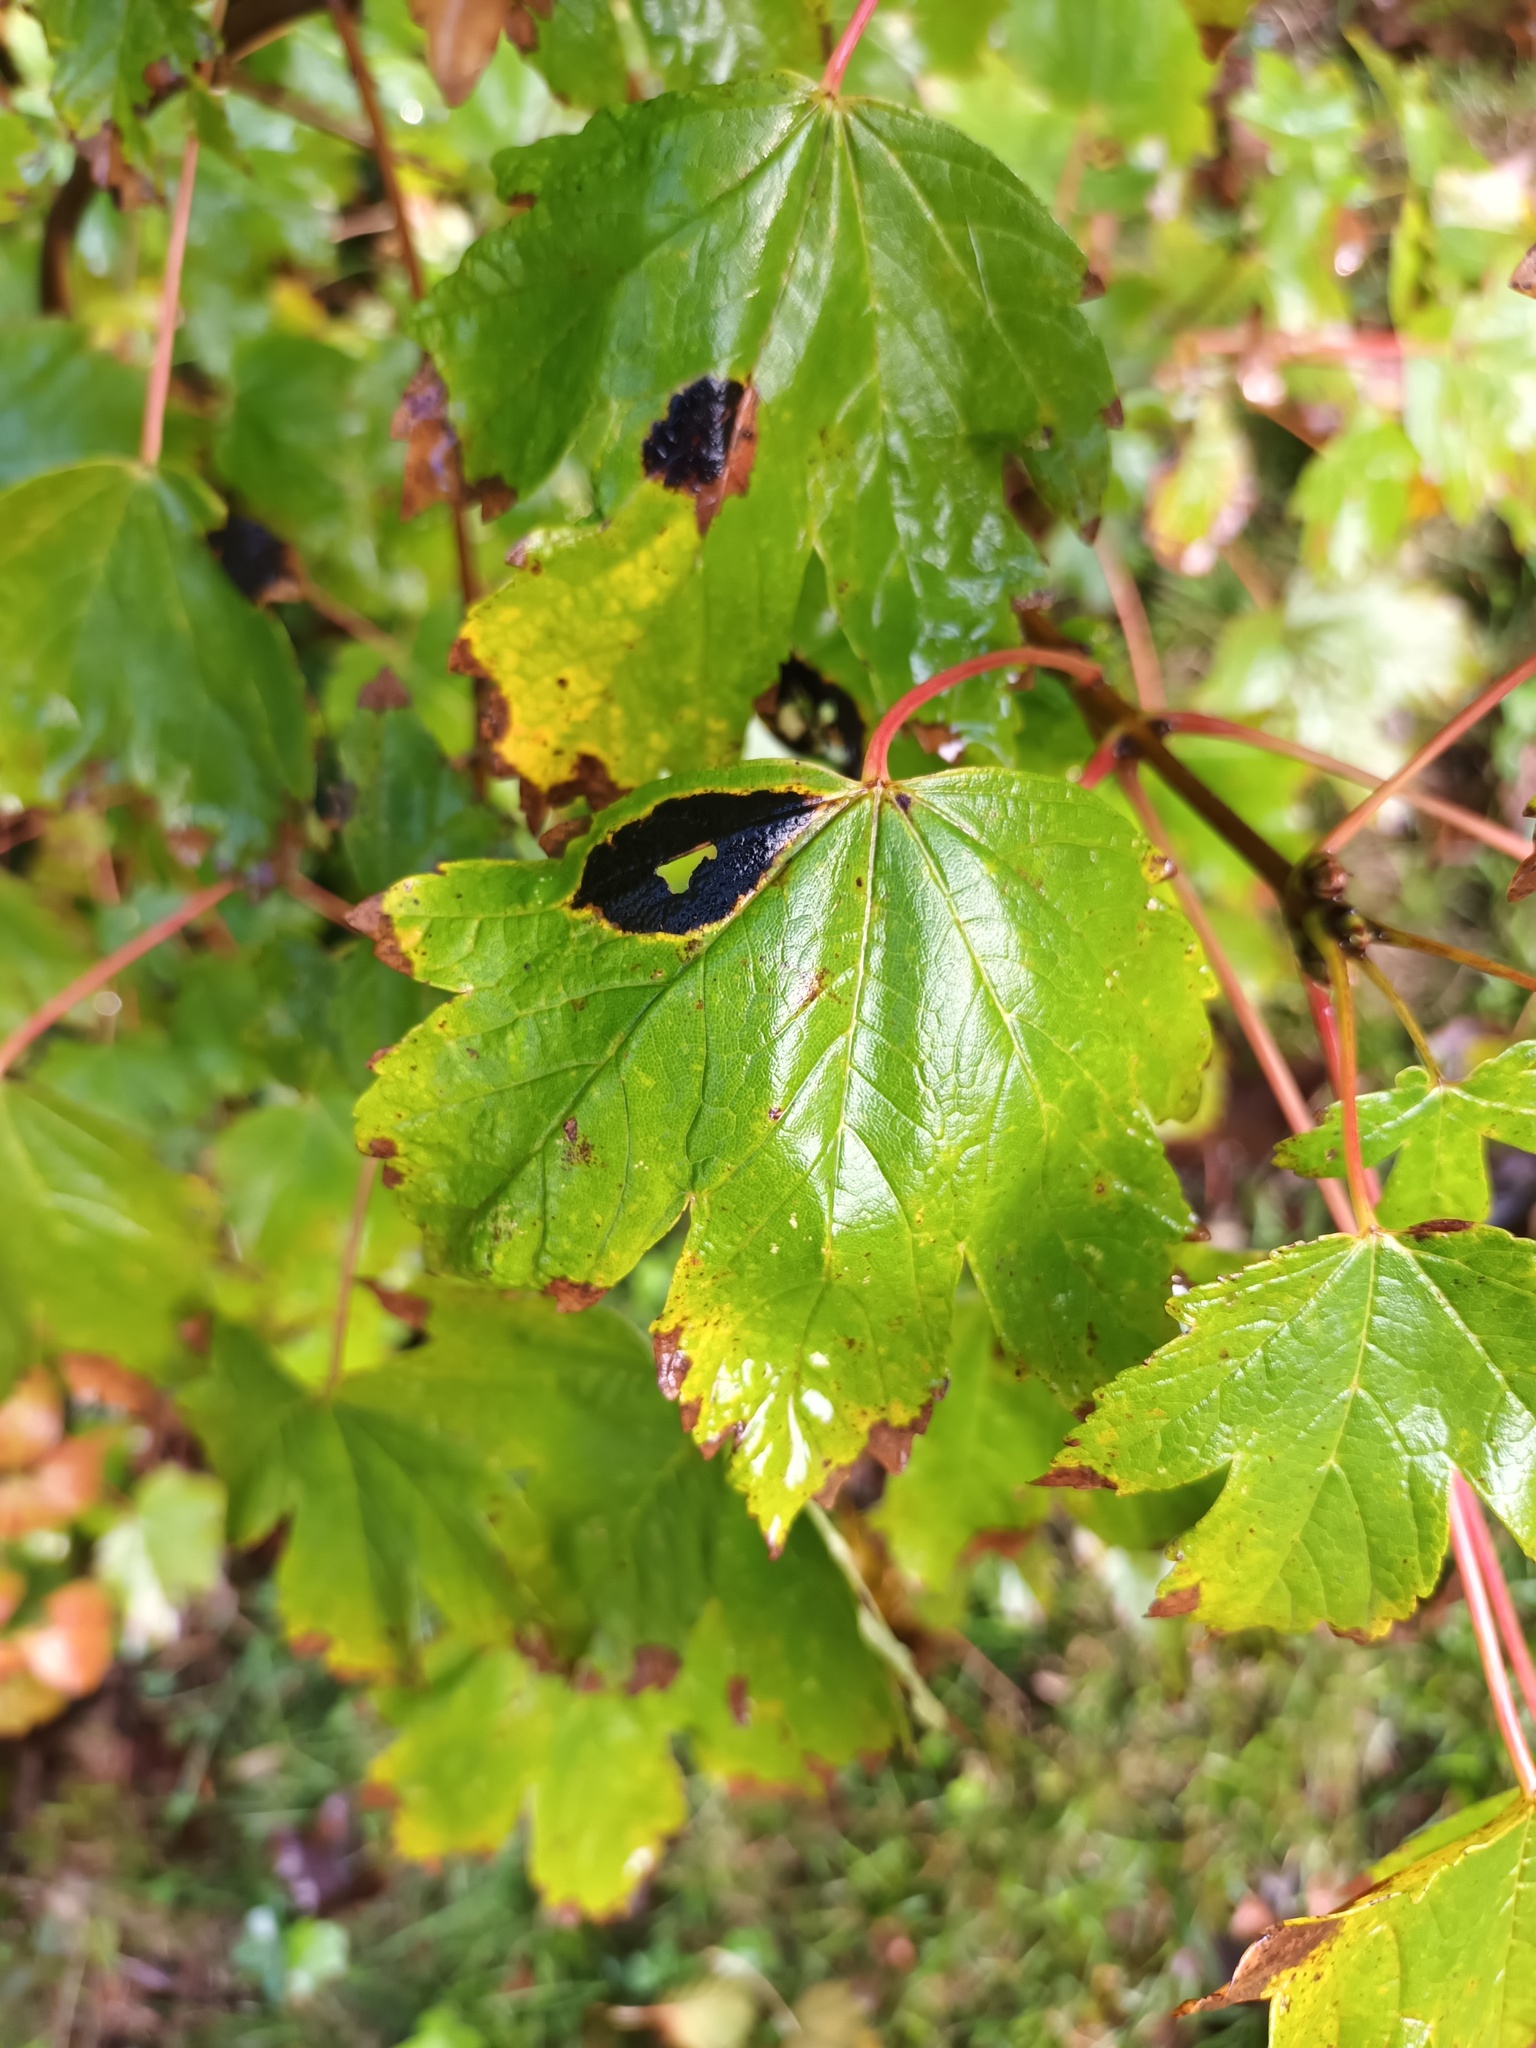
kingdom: Fungi
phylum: Ascomycota
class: Leotiomycetes
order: Rhytismatales
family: Rhytismataceae
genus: Rhytisma
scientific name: Rhytisma acerinum
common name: European tar spot
